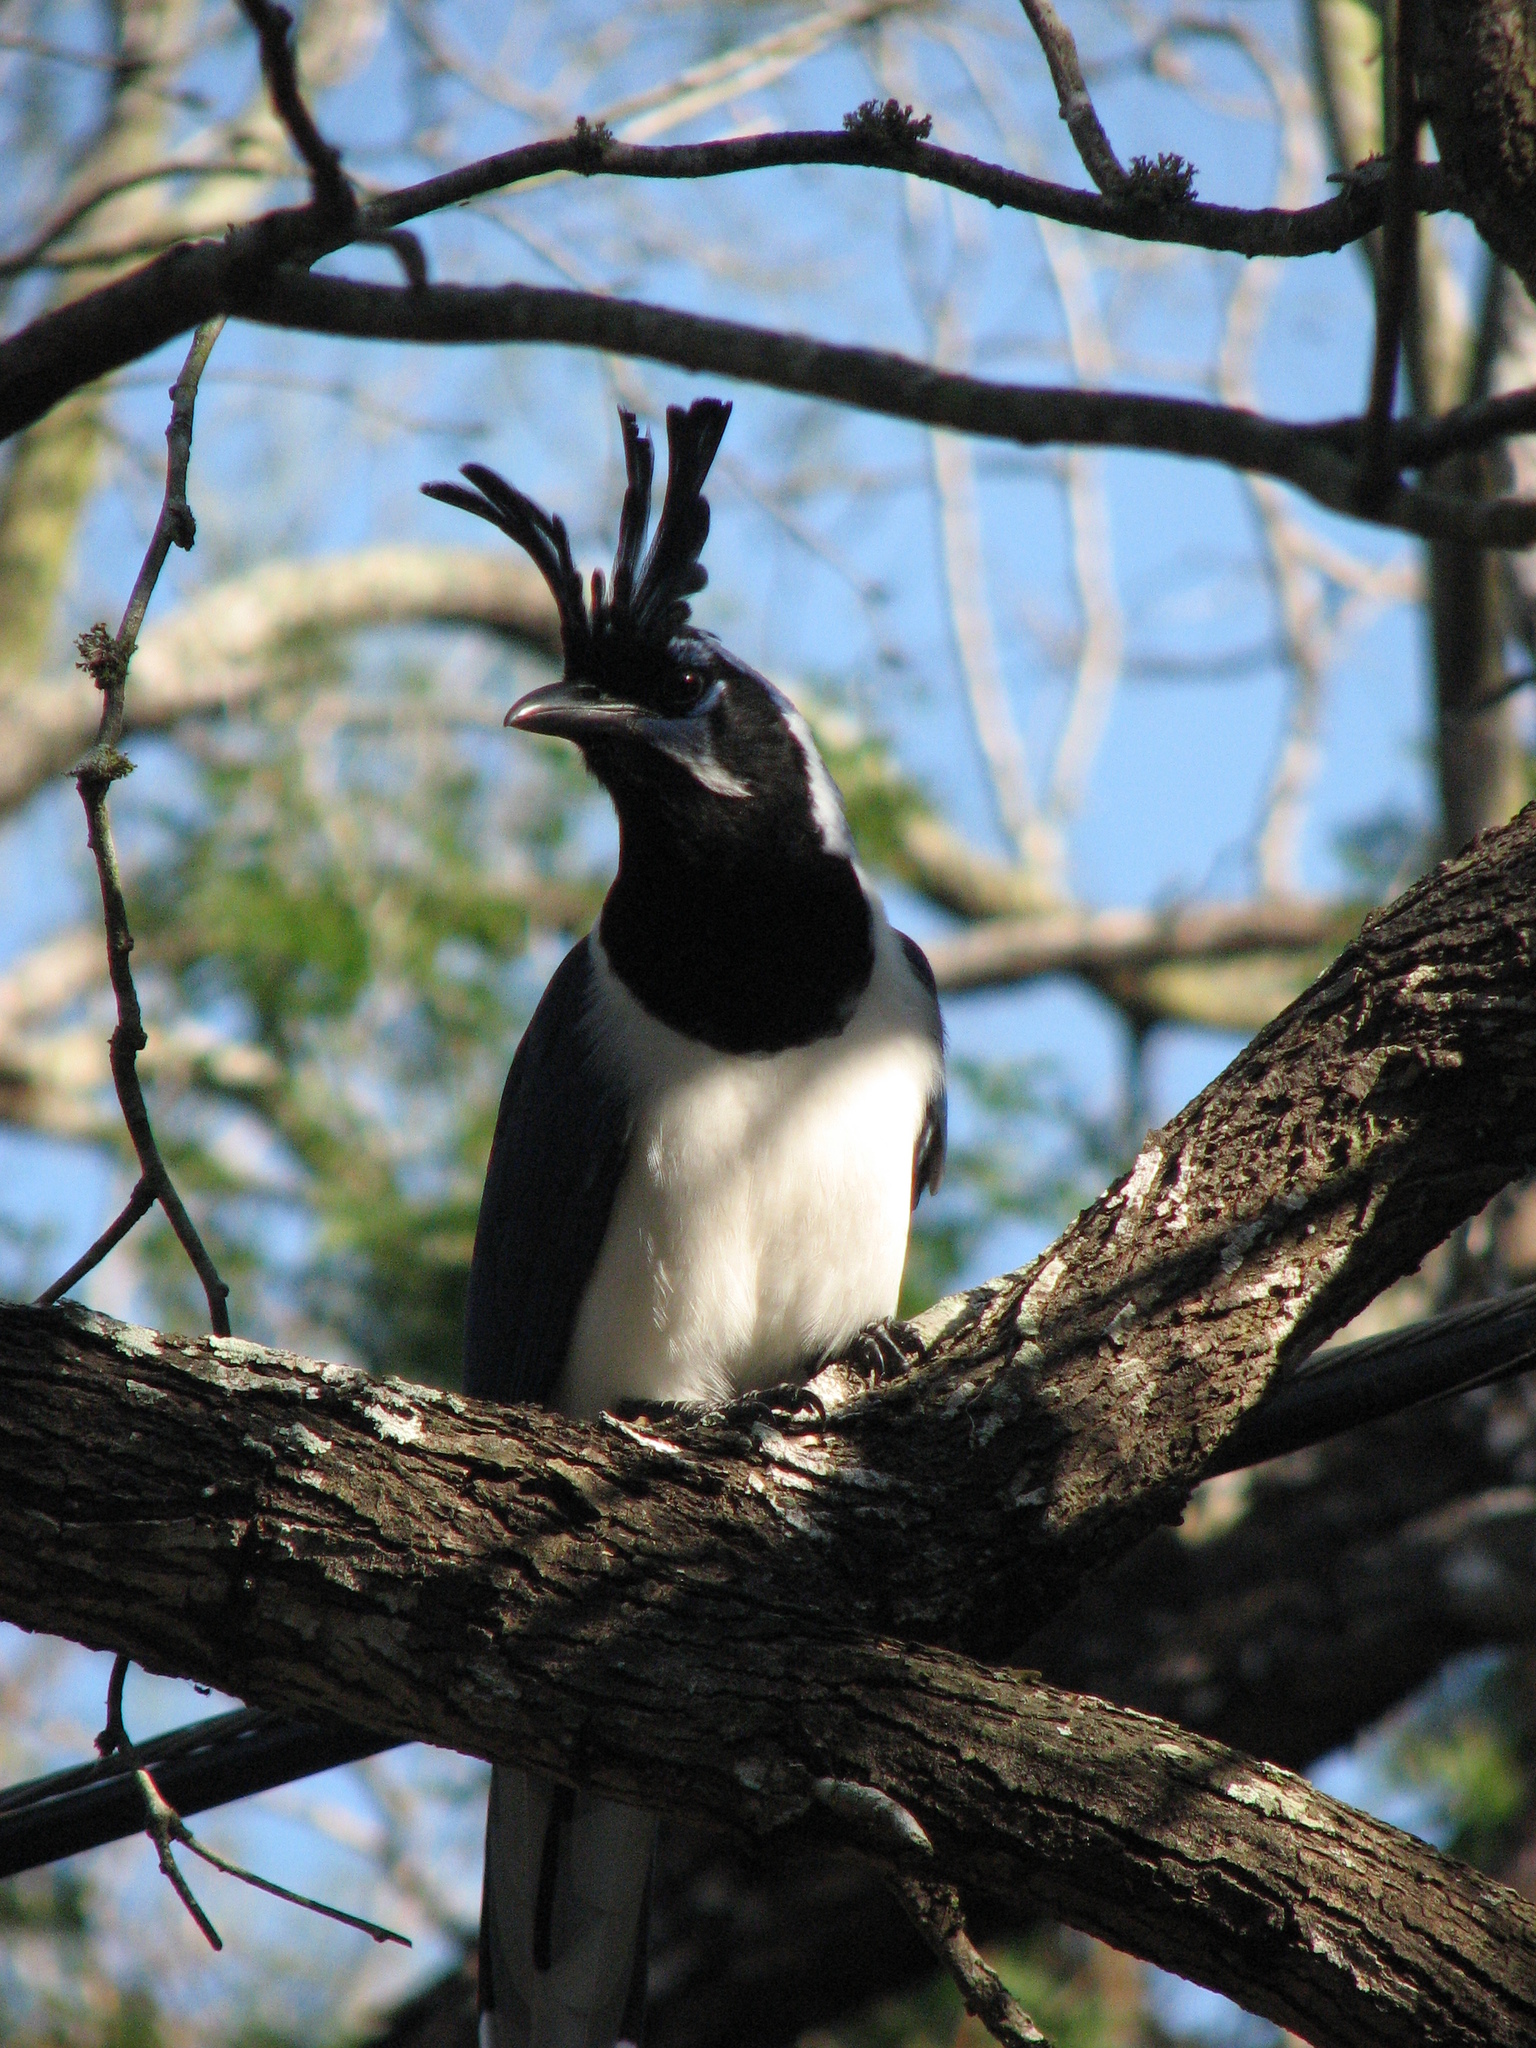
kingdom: Animalia
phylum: Chordata
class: Aves
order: Passeriformes
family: Corvidae
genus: Calocitta
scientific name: Calocitta colliei
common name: Black-throated magpie-jay
